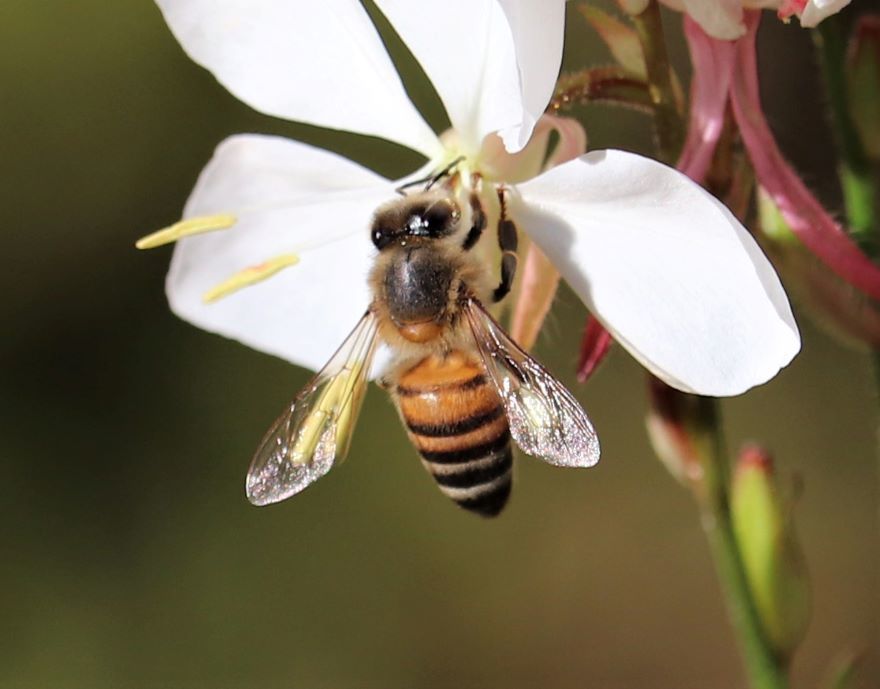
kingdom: Animalia
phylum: Arthropoda
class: Insecta
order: Hymenoptera
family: Apidae
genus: Apis
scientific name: Apis mellifera
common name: Honey bee
